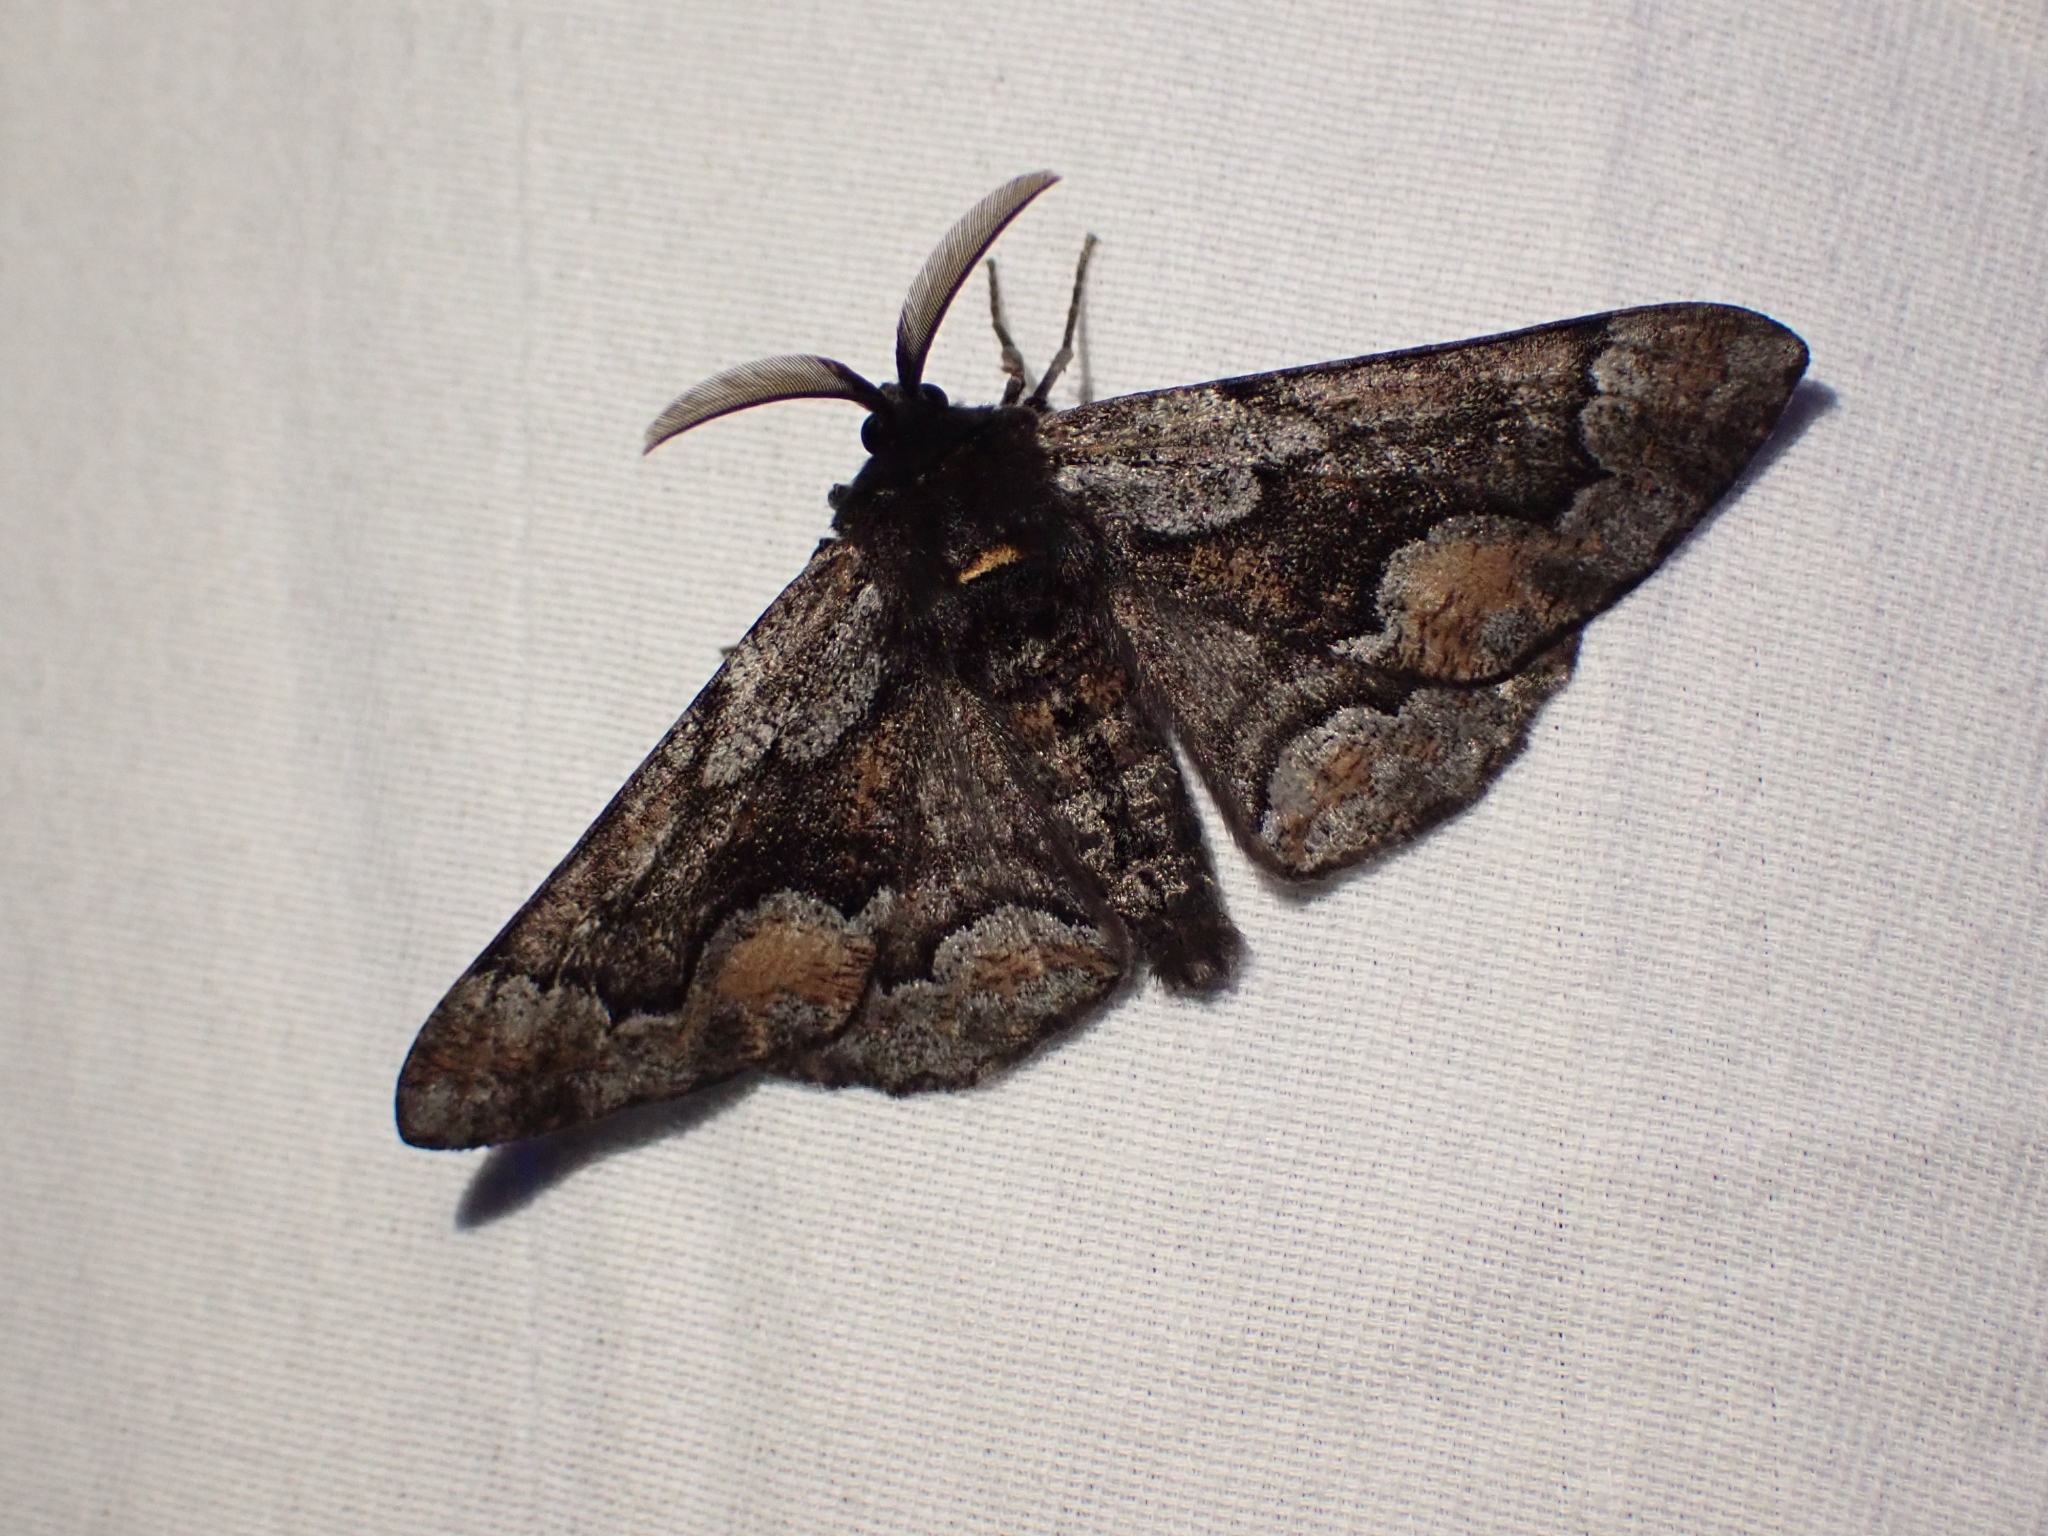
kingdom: Animalia
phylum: Arthropoda
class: Insecta
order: Lepidoptera
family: Geometridae
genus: Phaeoura
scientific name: Phaeoura mexicanaria
